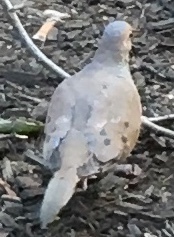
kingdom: Animalia
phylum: Chordata
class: Aves
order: Columbiformes
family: Columbidae
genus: Zenaida
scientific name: Zenaida macroura
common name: Mourning dove
